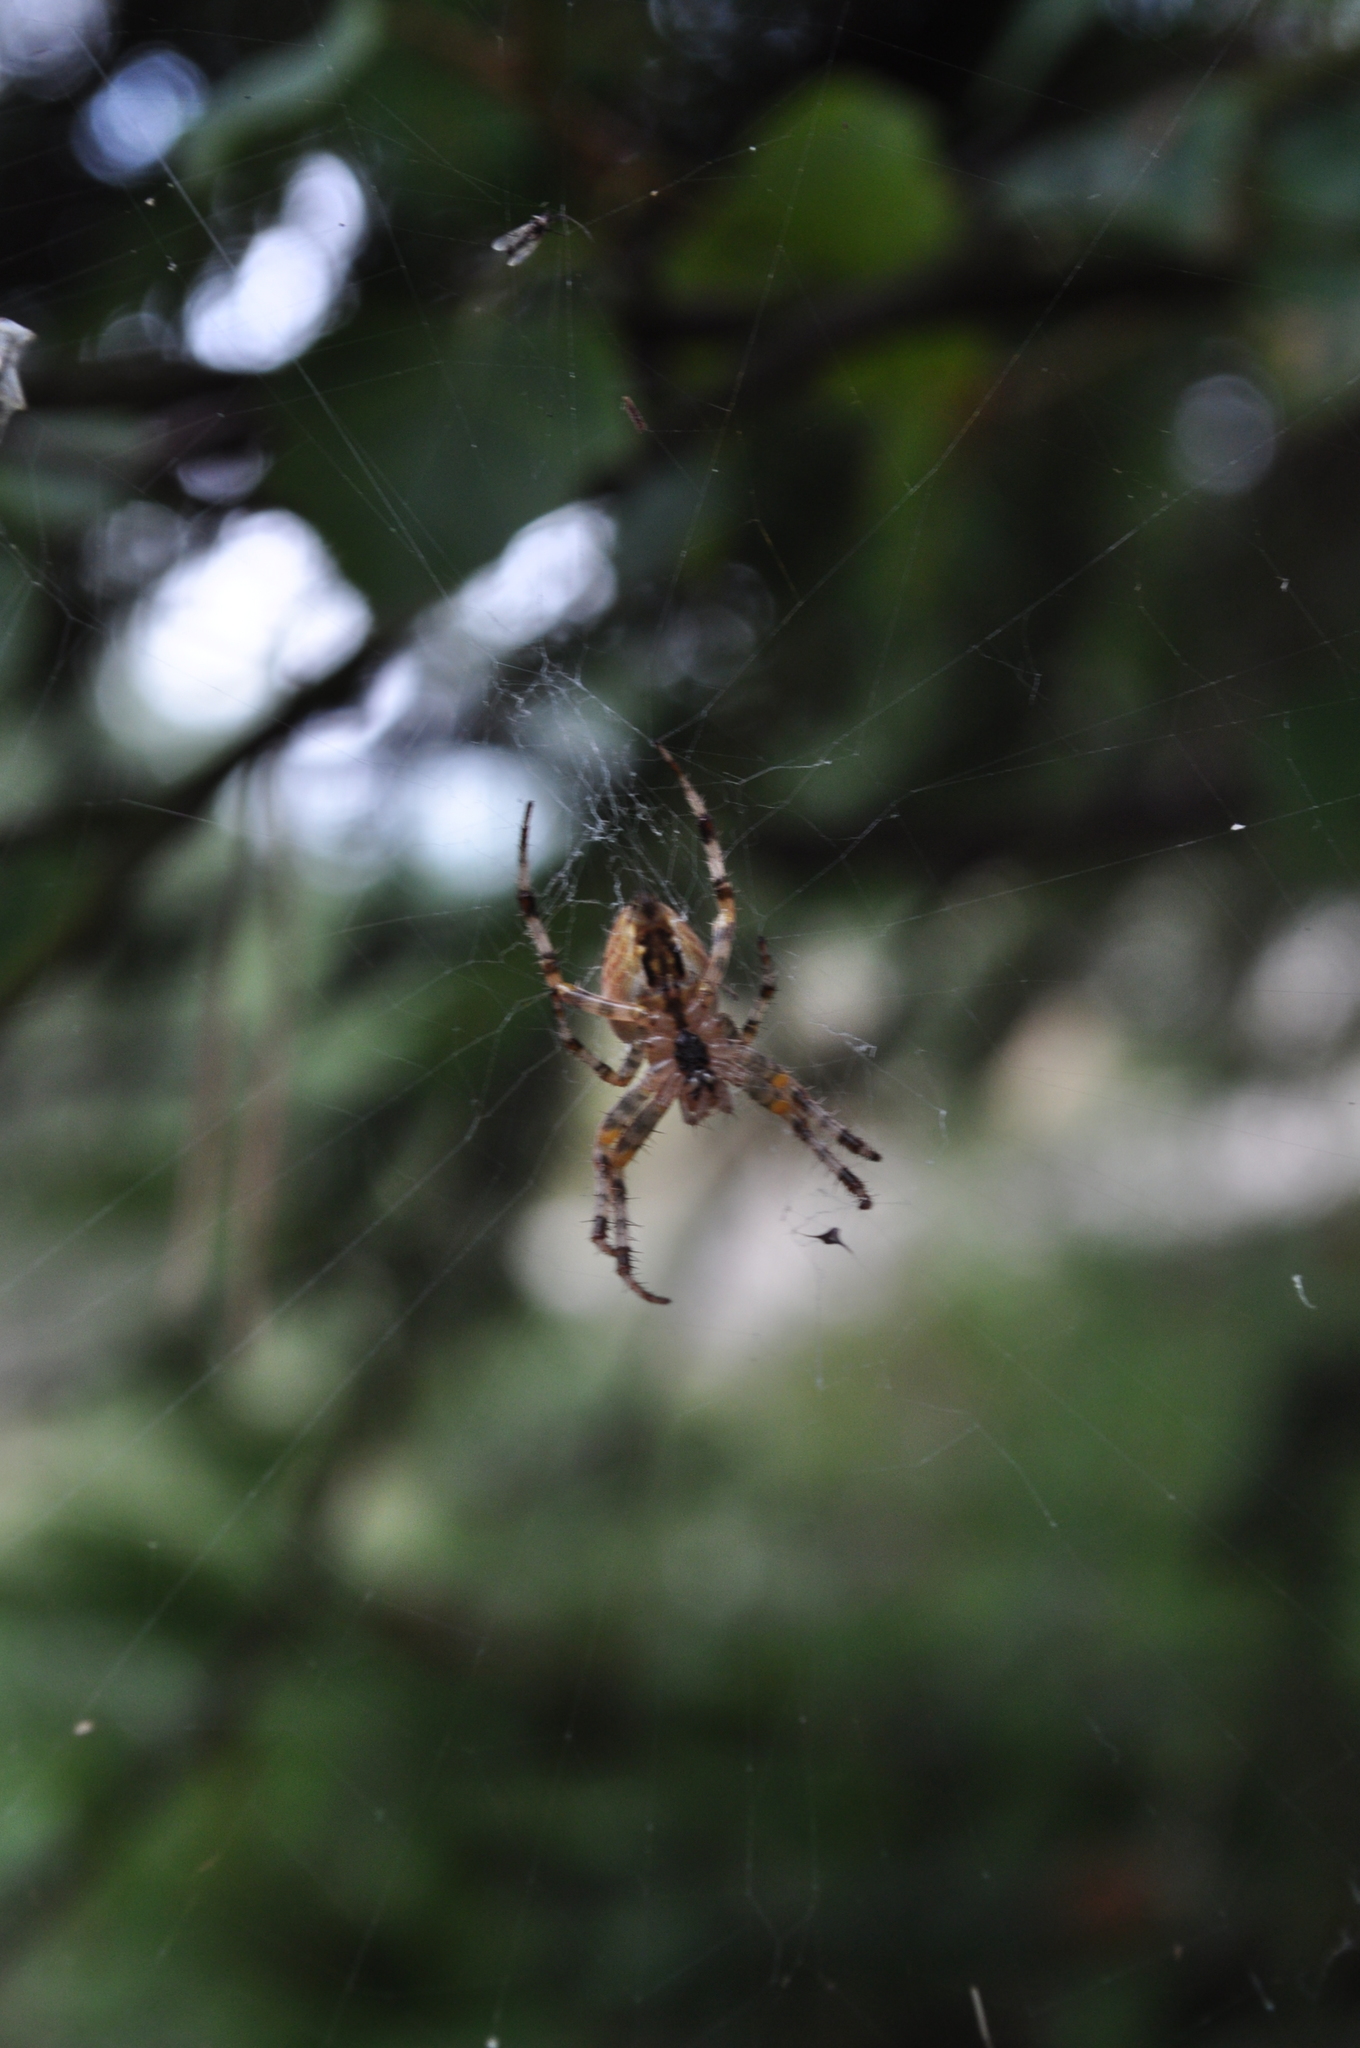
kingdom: Animalia
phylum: Arthropoda
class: Arachnida
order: Araneae
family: Araneidae
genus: Araneus
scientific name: Araneus diadematus
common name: Cross orbweaver
